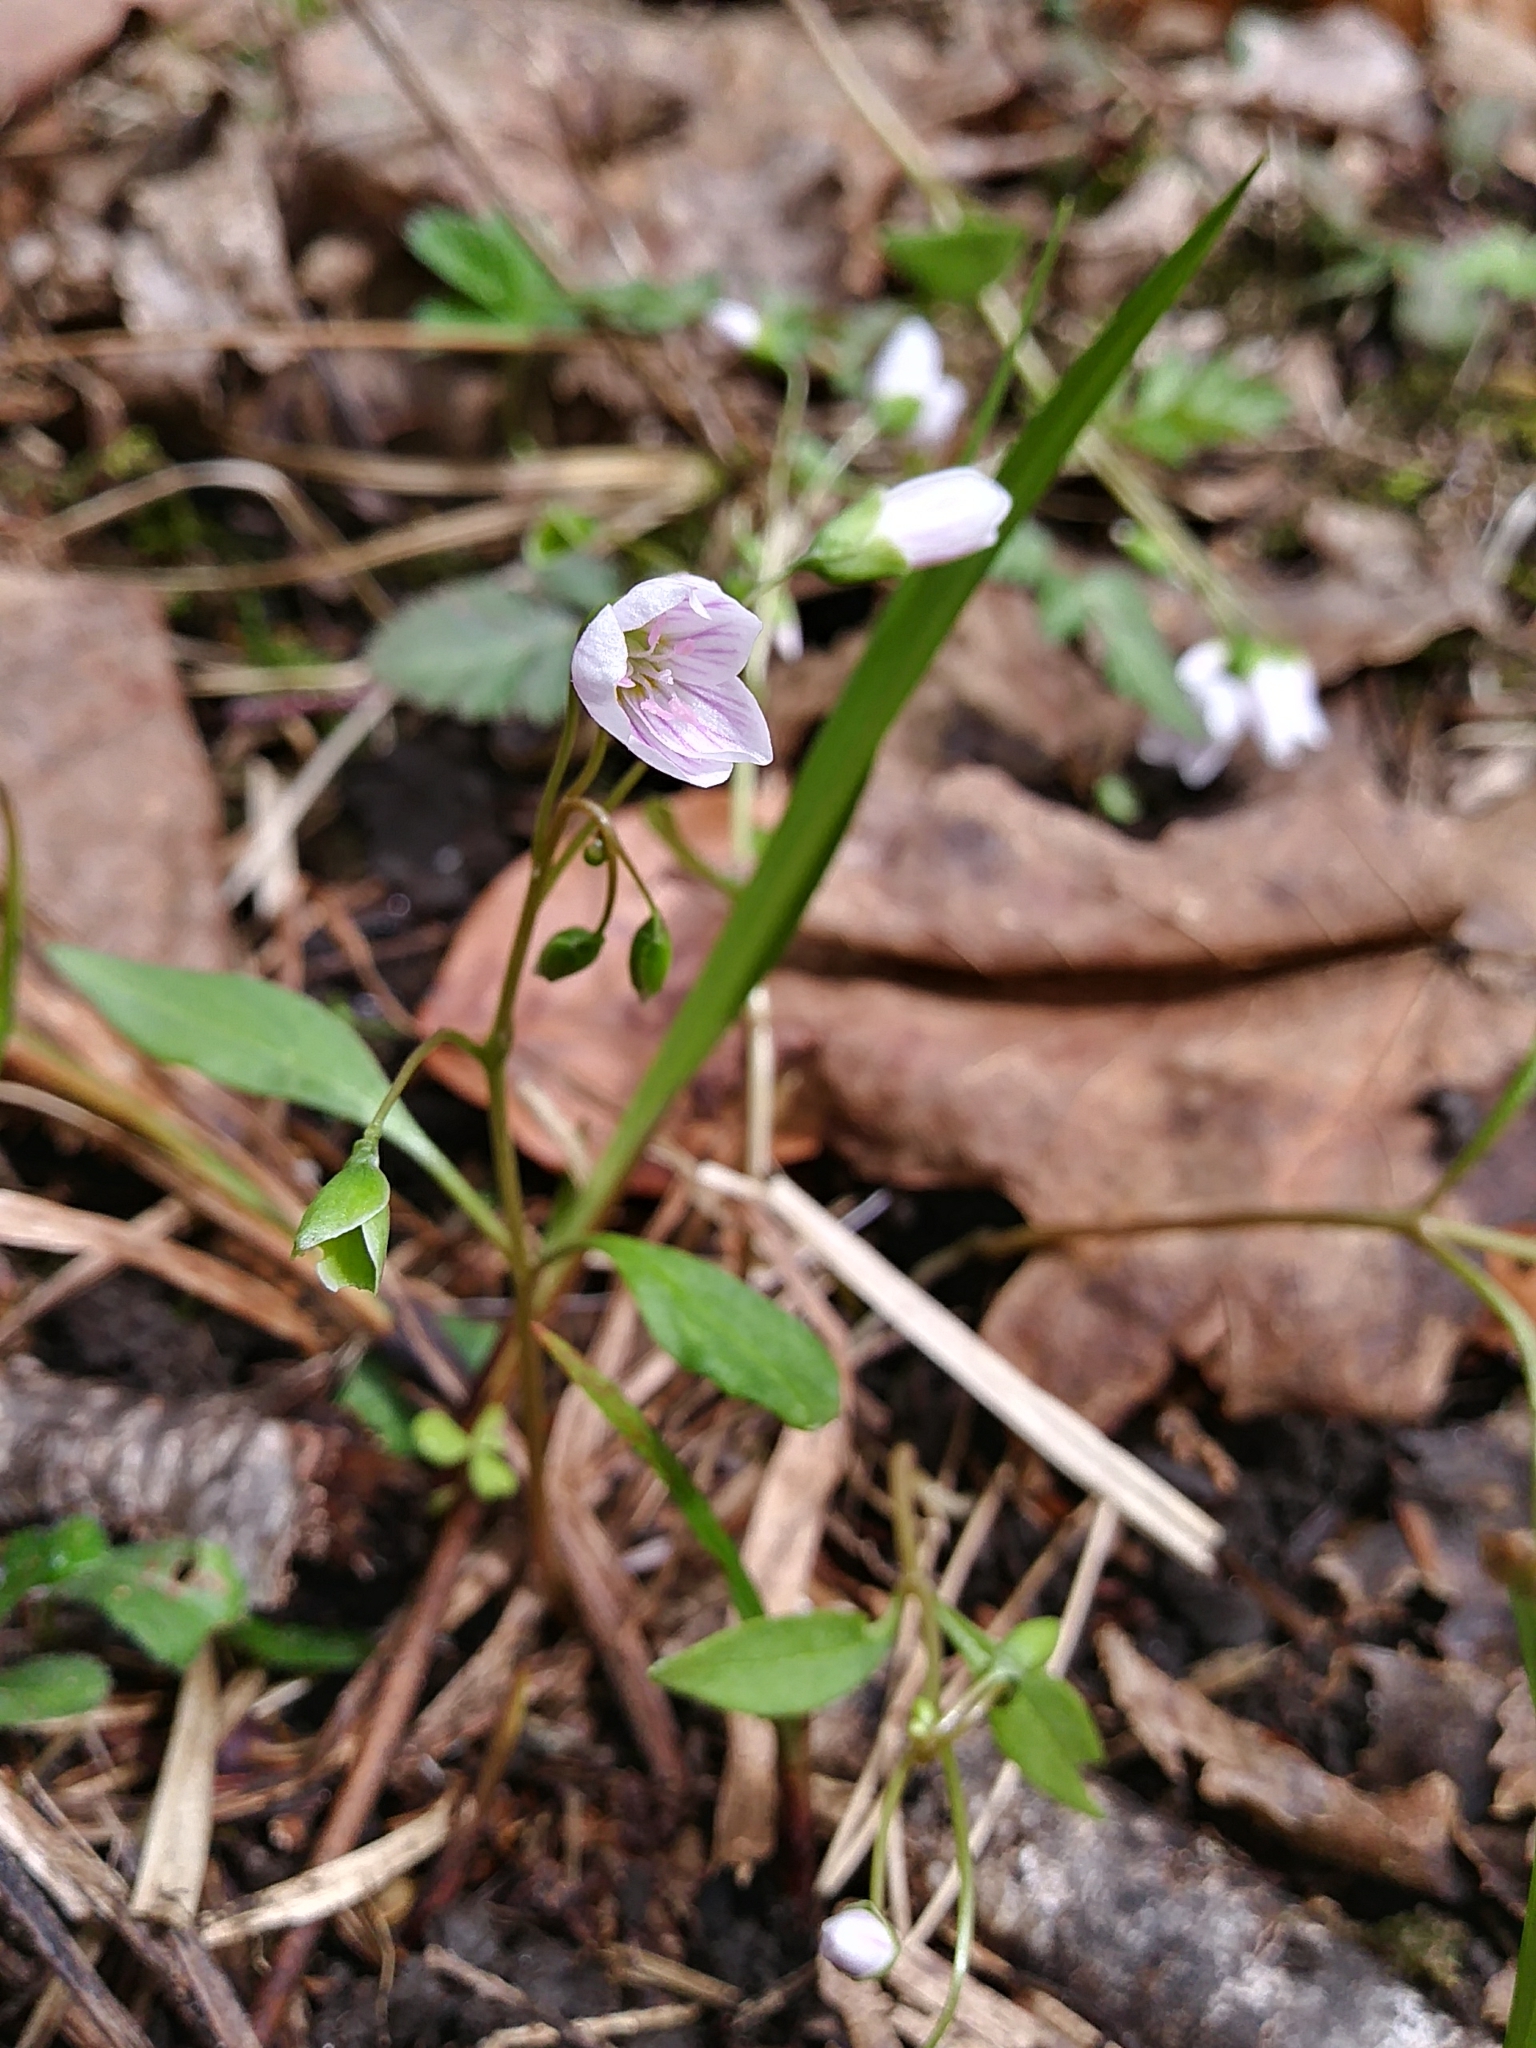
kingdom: Plantae
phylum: Tracheophyta
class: Magnoliopsida
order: Caryophyllales
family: Montiaceae
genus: Claytonia
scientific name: Claytonia caroliniana
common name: Carolina spring beauty
